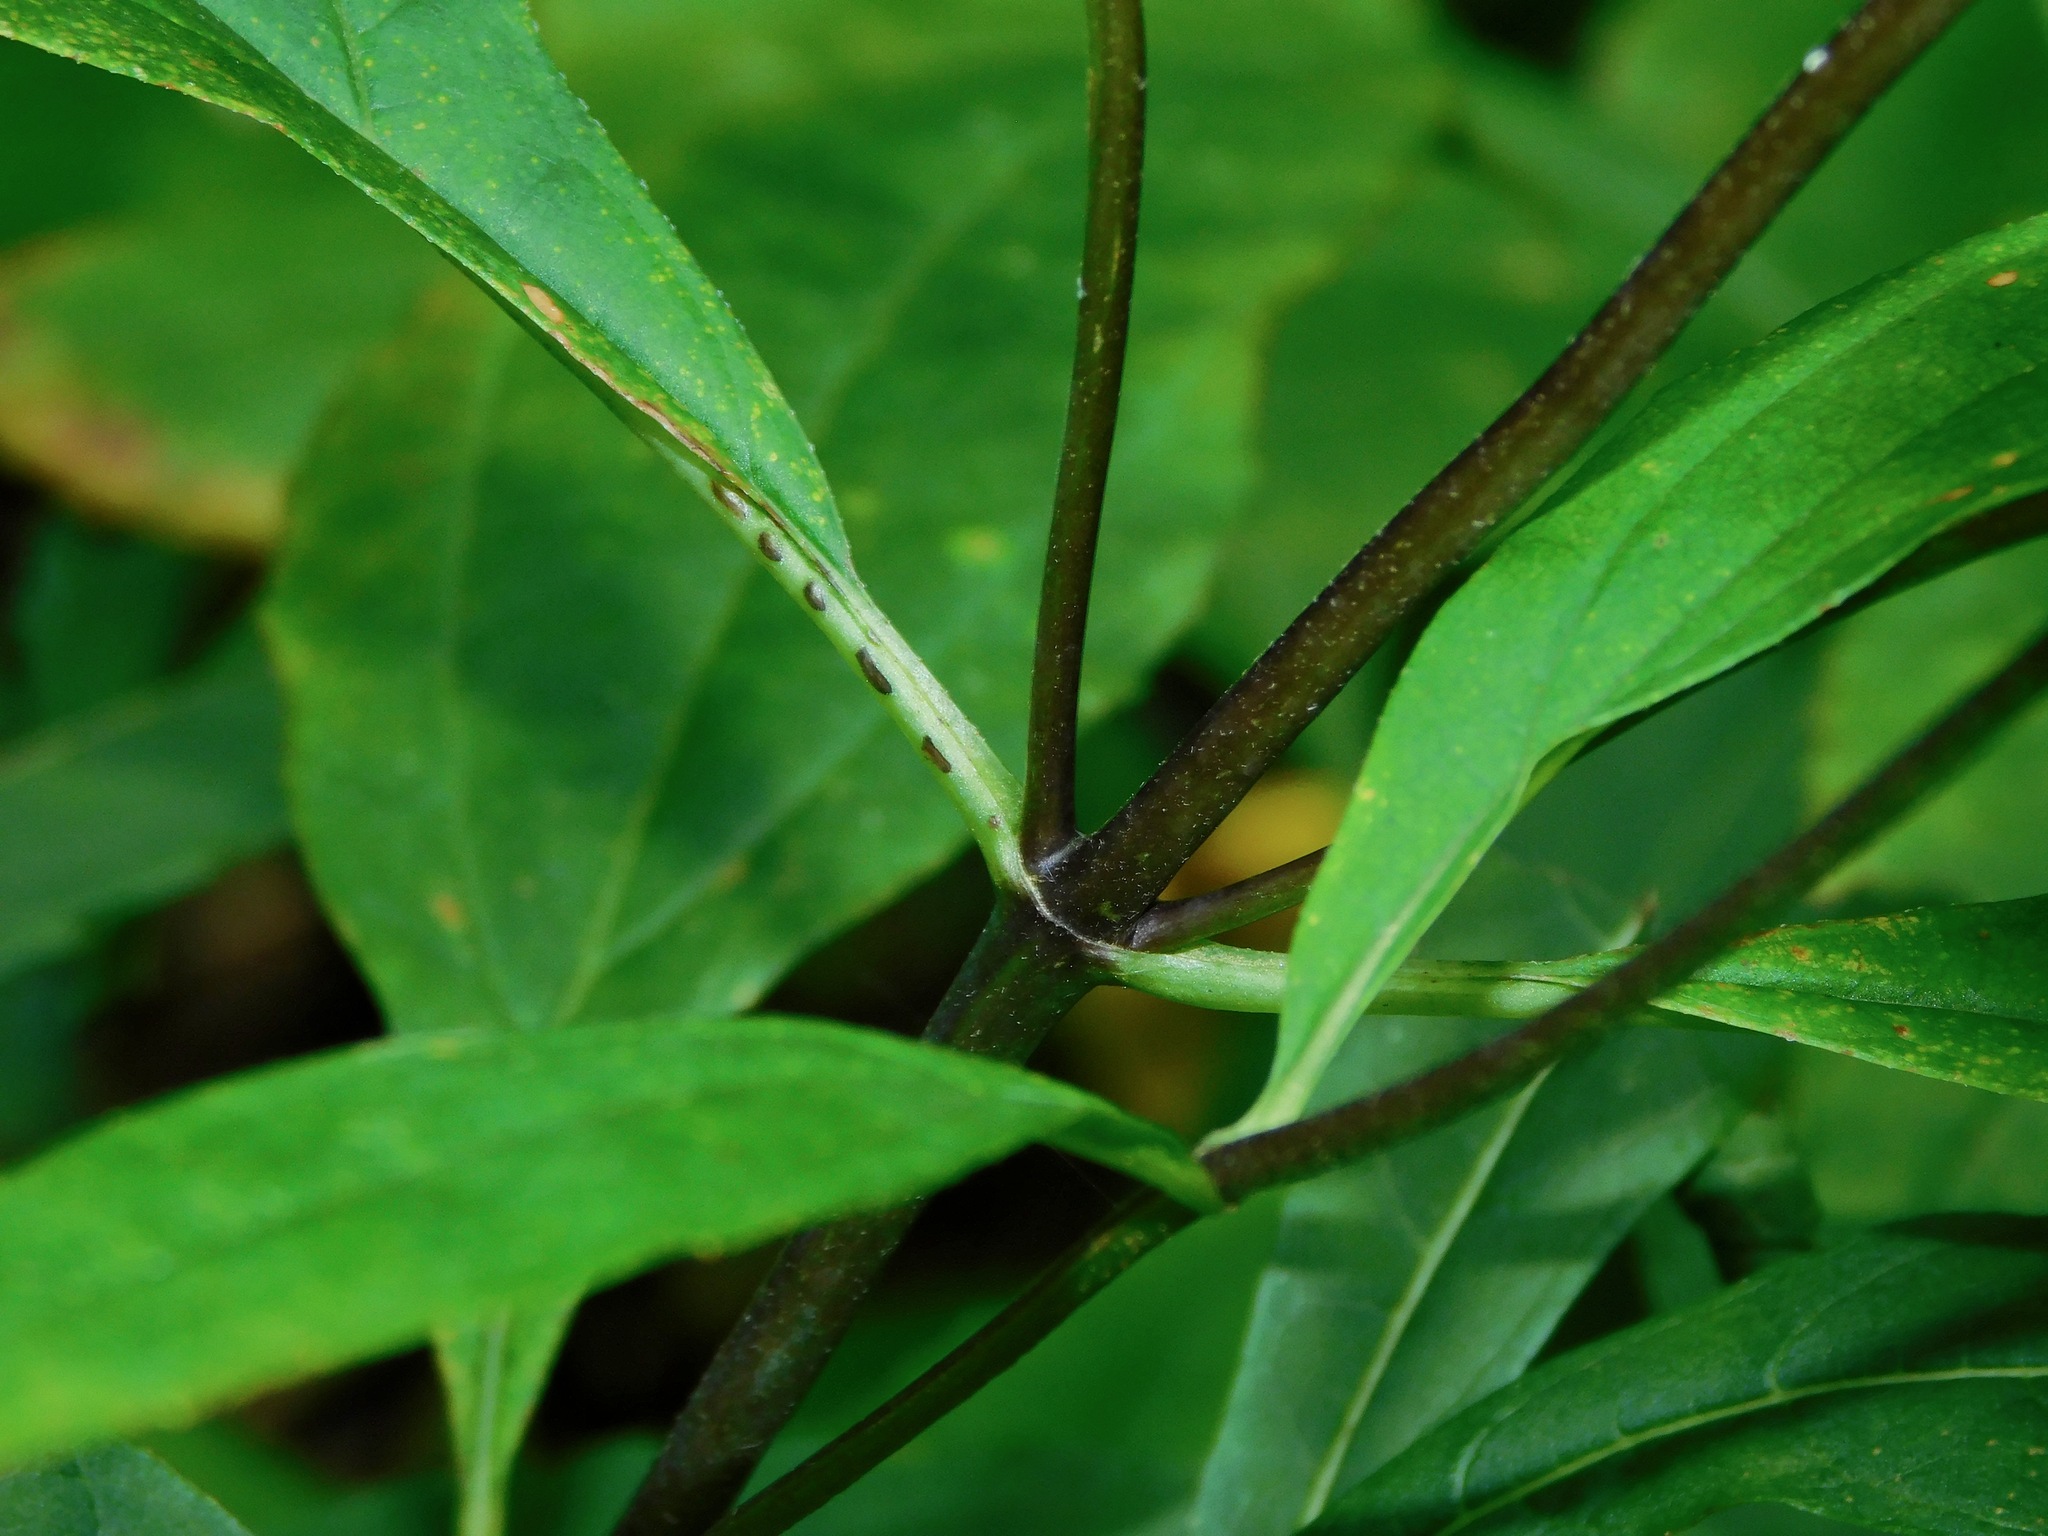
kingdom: Plantae
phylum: Tracheophyta
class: Magnoliopsida
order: Asterales
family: Asteraceae
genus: Helianthus
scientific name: Helianthus decapetalus
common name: Thin-leaved sunflower
